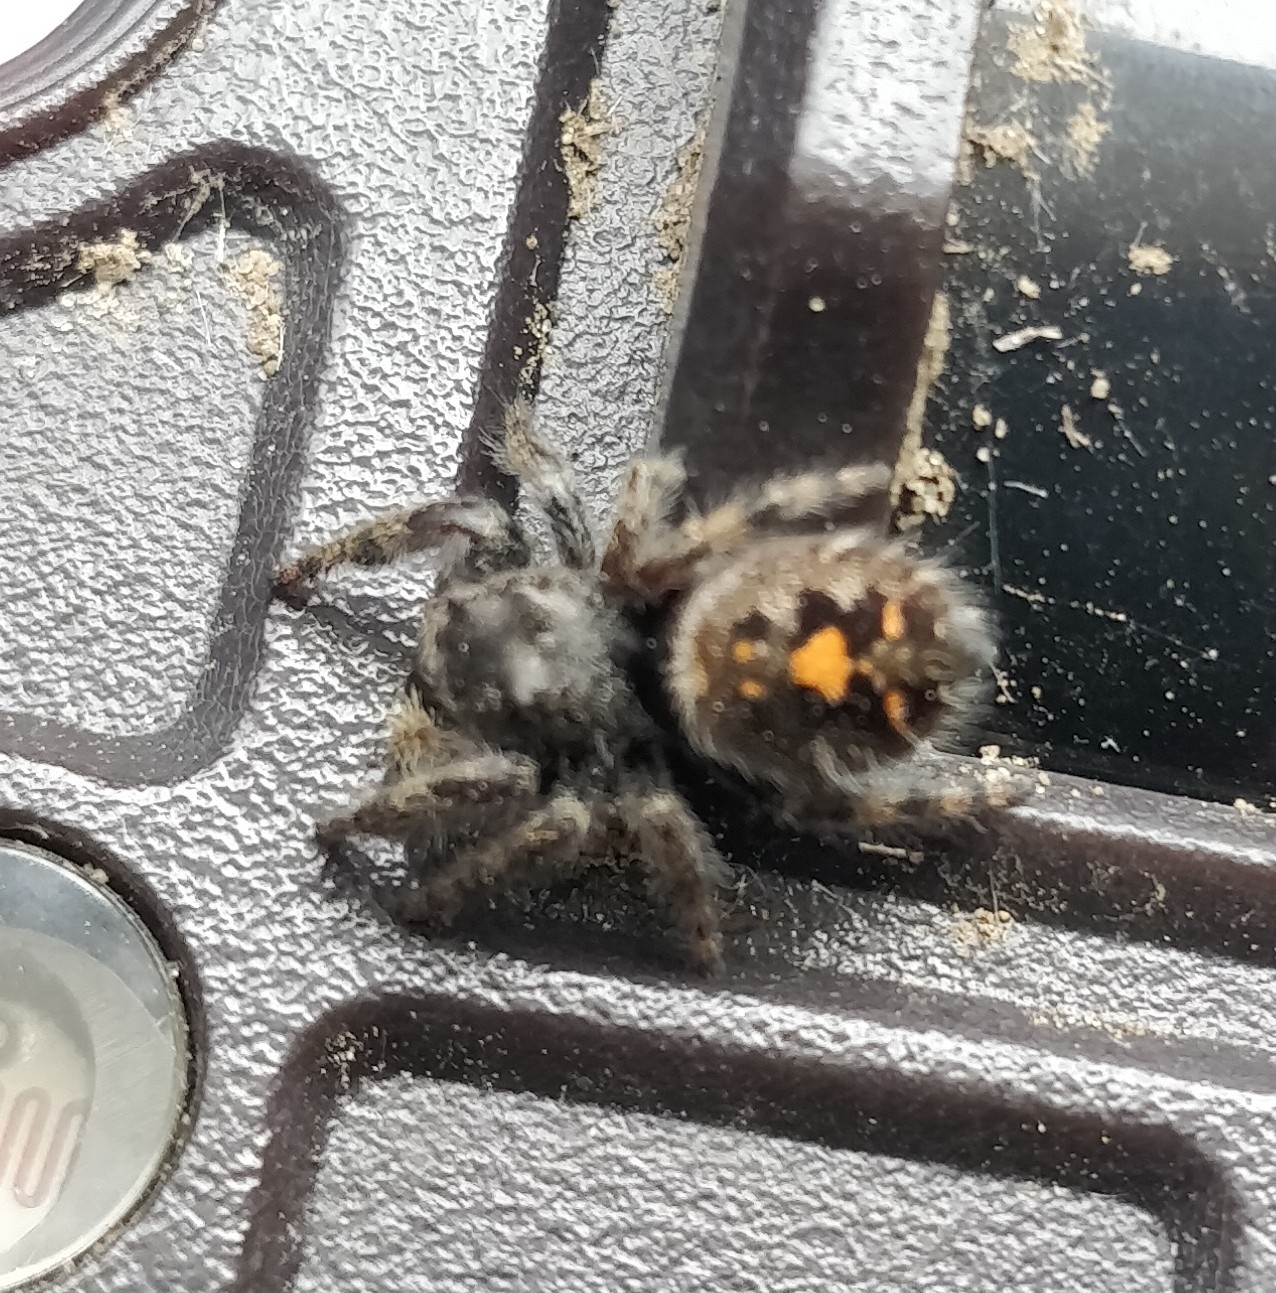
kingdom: Animalia
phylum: Arthropoda
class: Arachnida
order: Araneae
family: Salticidae
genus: Phidippus
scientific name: Phidippus audax
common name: Bold jumper
